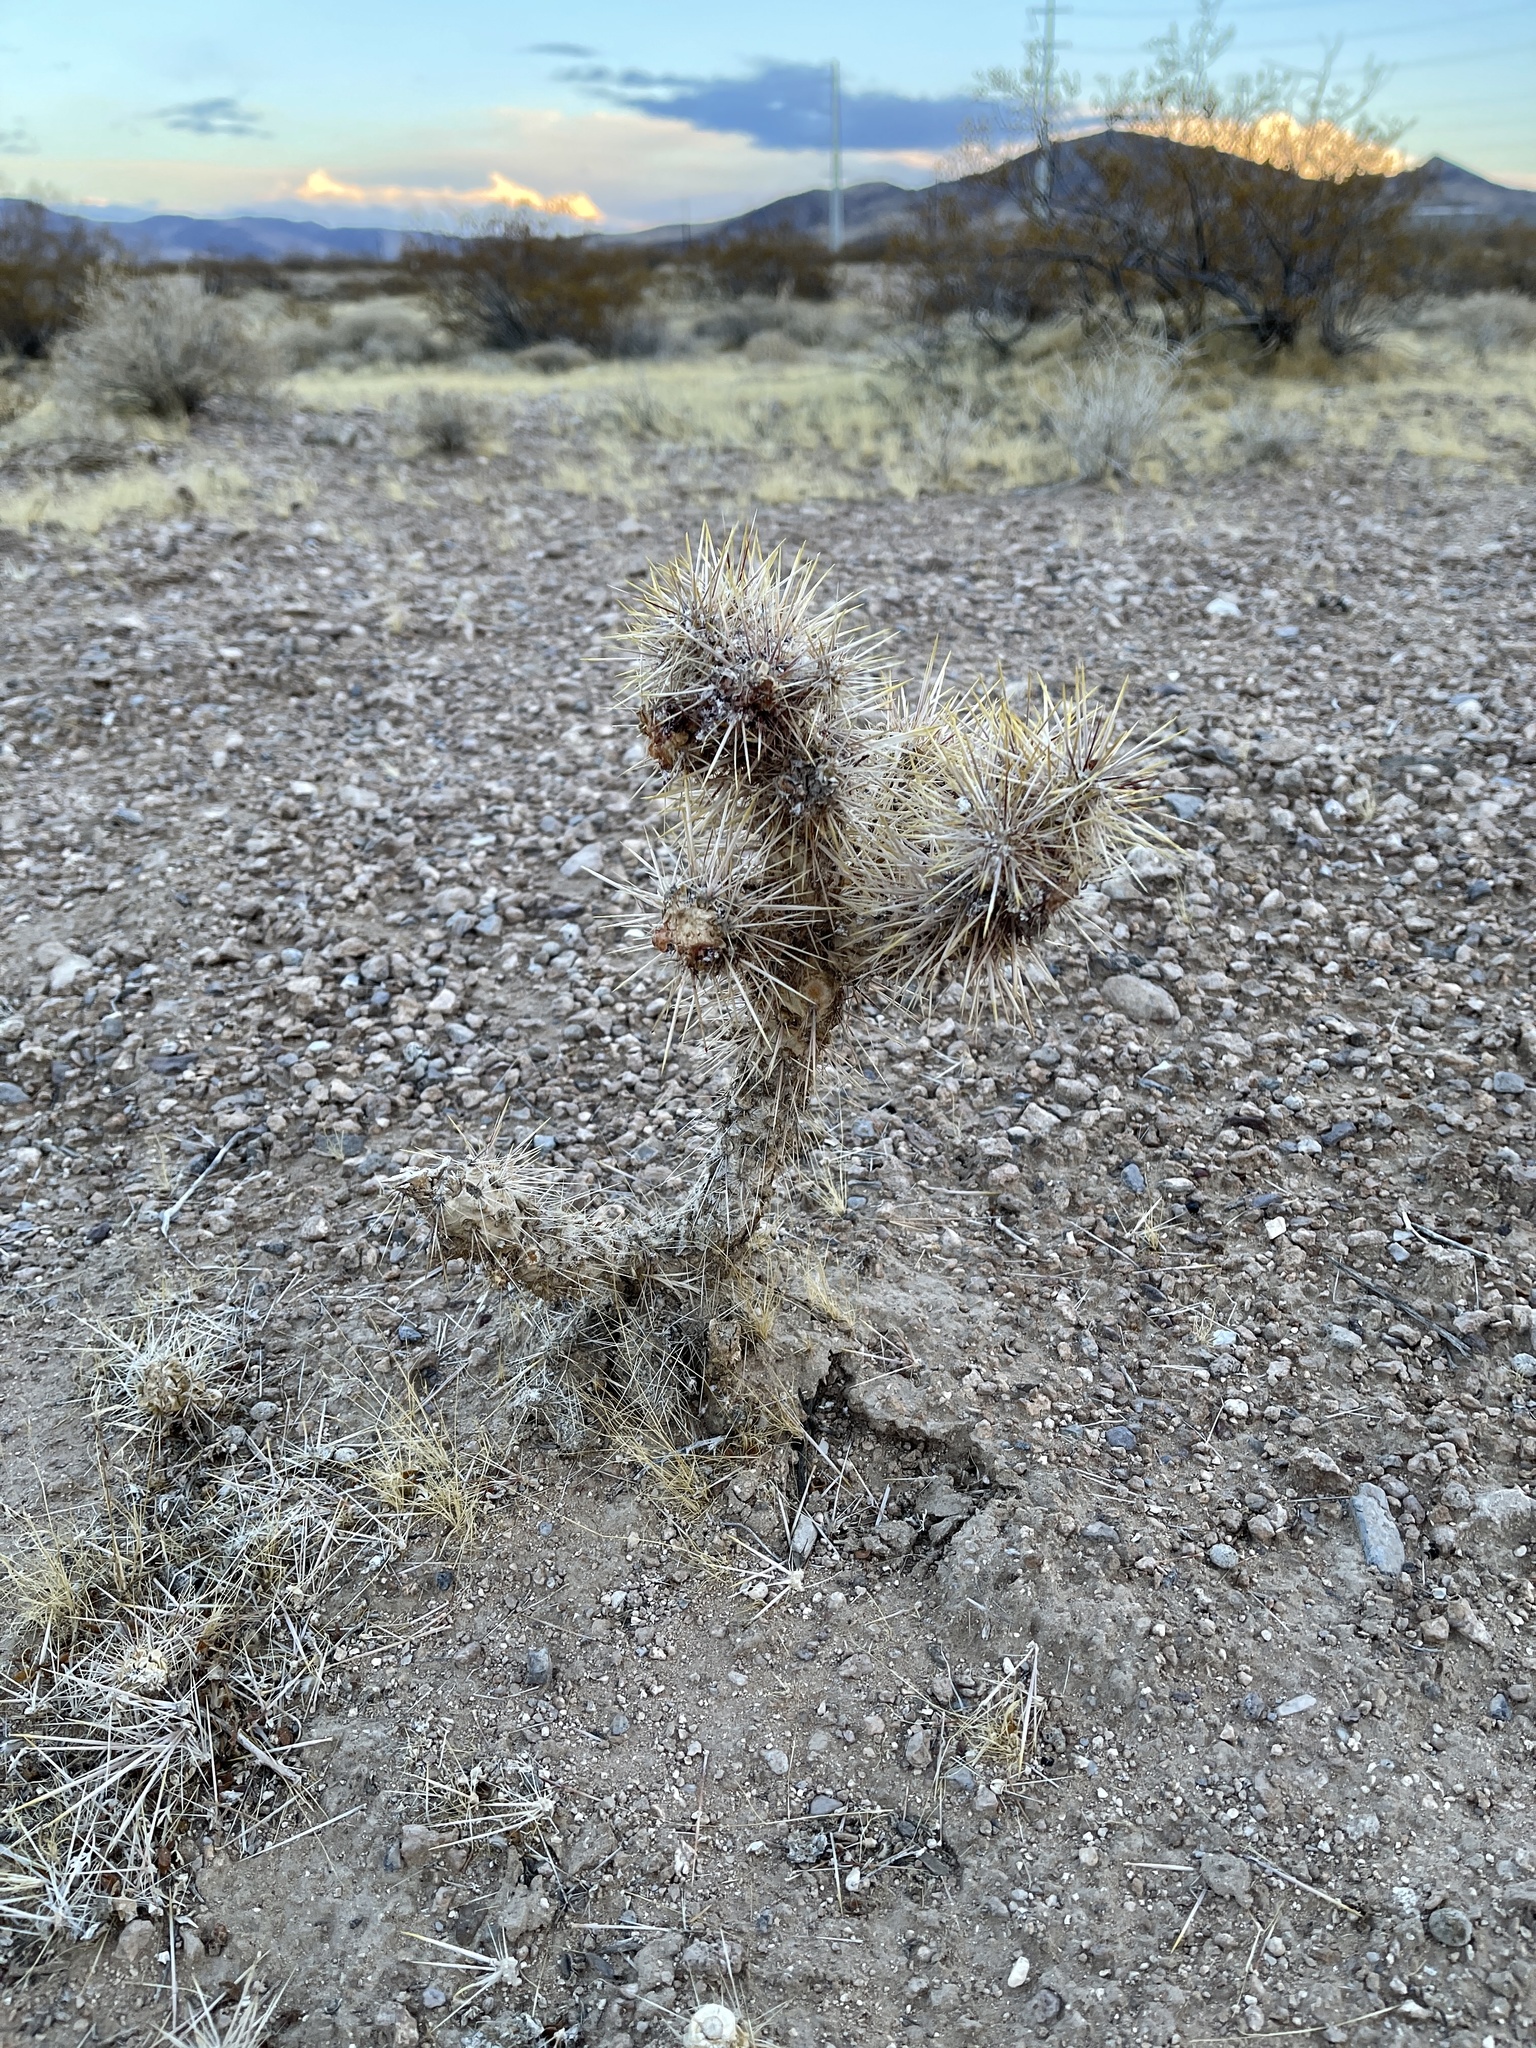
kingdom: Plantae
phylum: Tracheophyta
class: Magnoliopsida
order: Caryophyllales
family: Cactaceae
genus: Cylindropuntia
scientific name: Cylindropuntia echinocarpa
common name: Ground cholla
